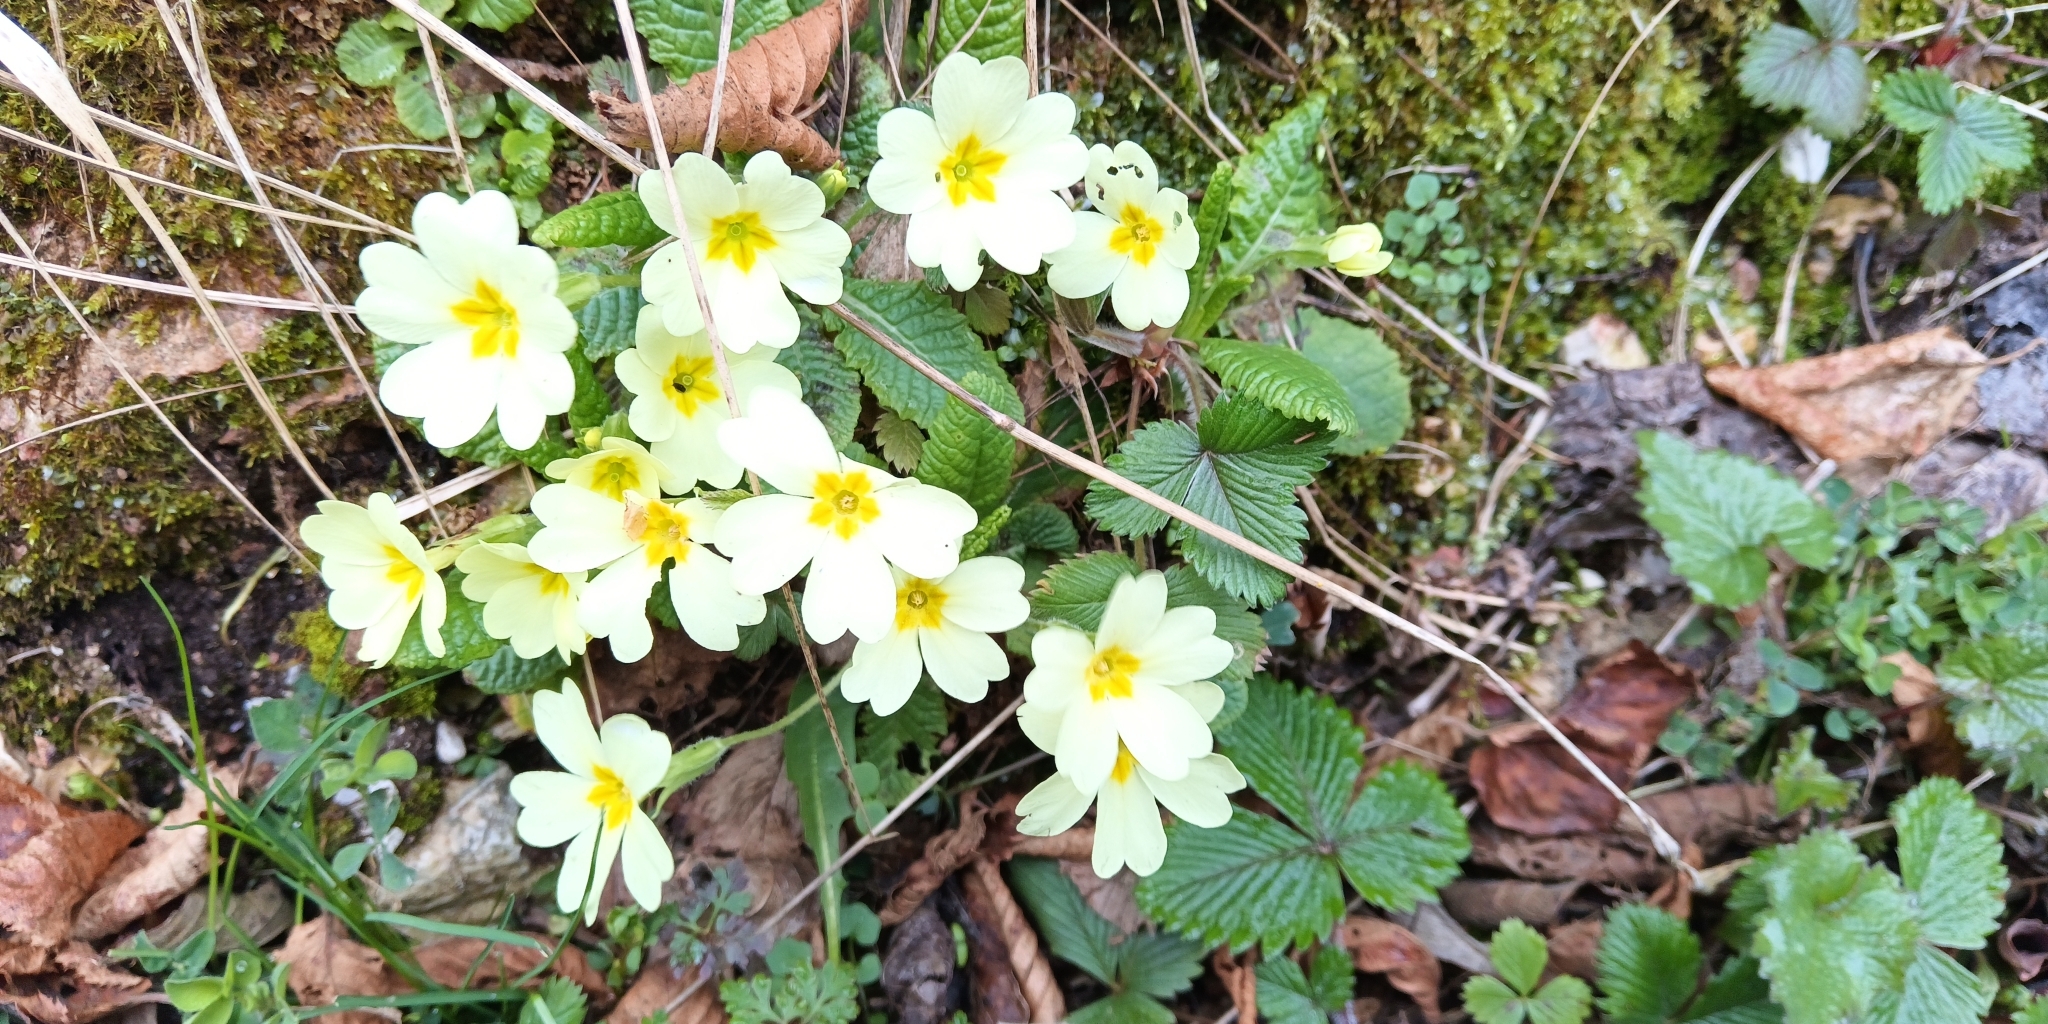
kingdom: Plantae
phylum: Tracheophyta
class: Magnoliopsida
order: Ericales
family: Primulaceae
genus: Primula
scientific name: Primula vulgaris
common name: Primrose
